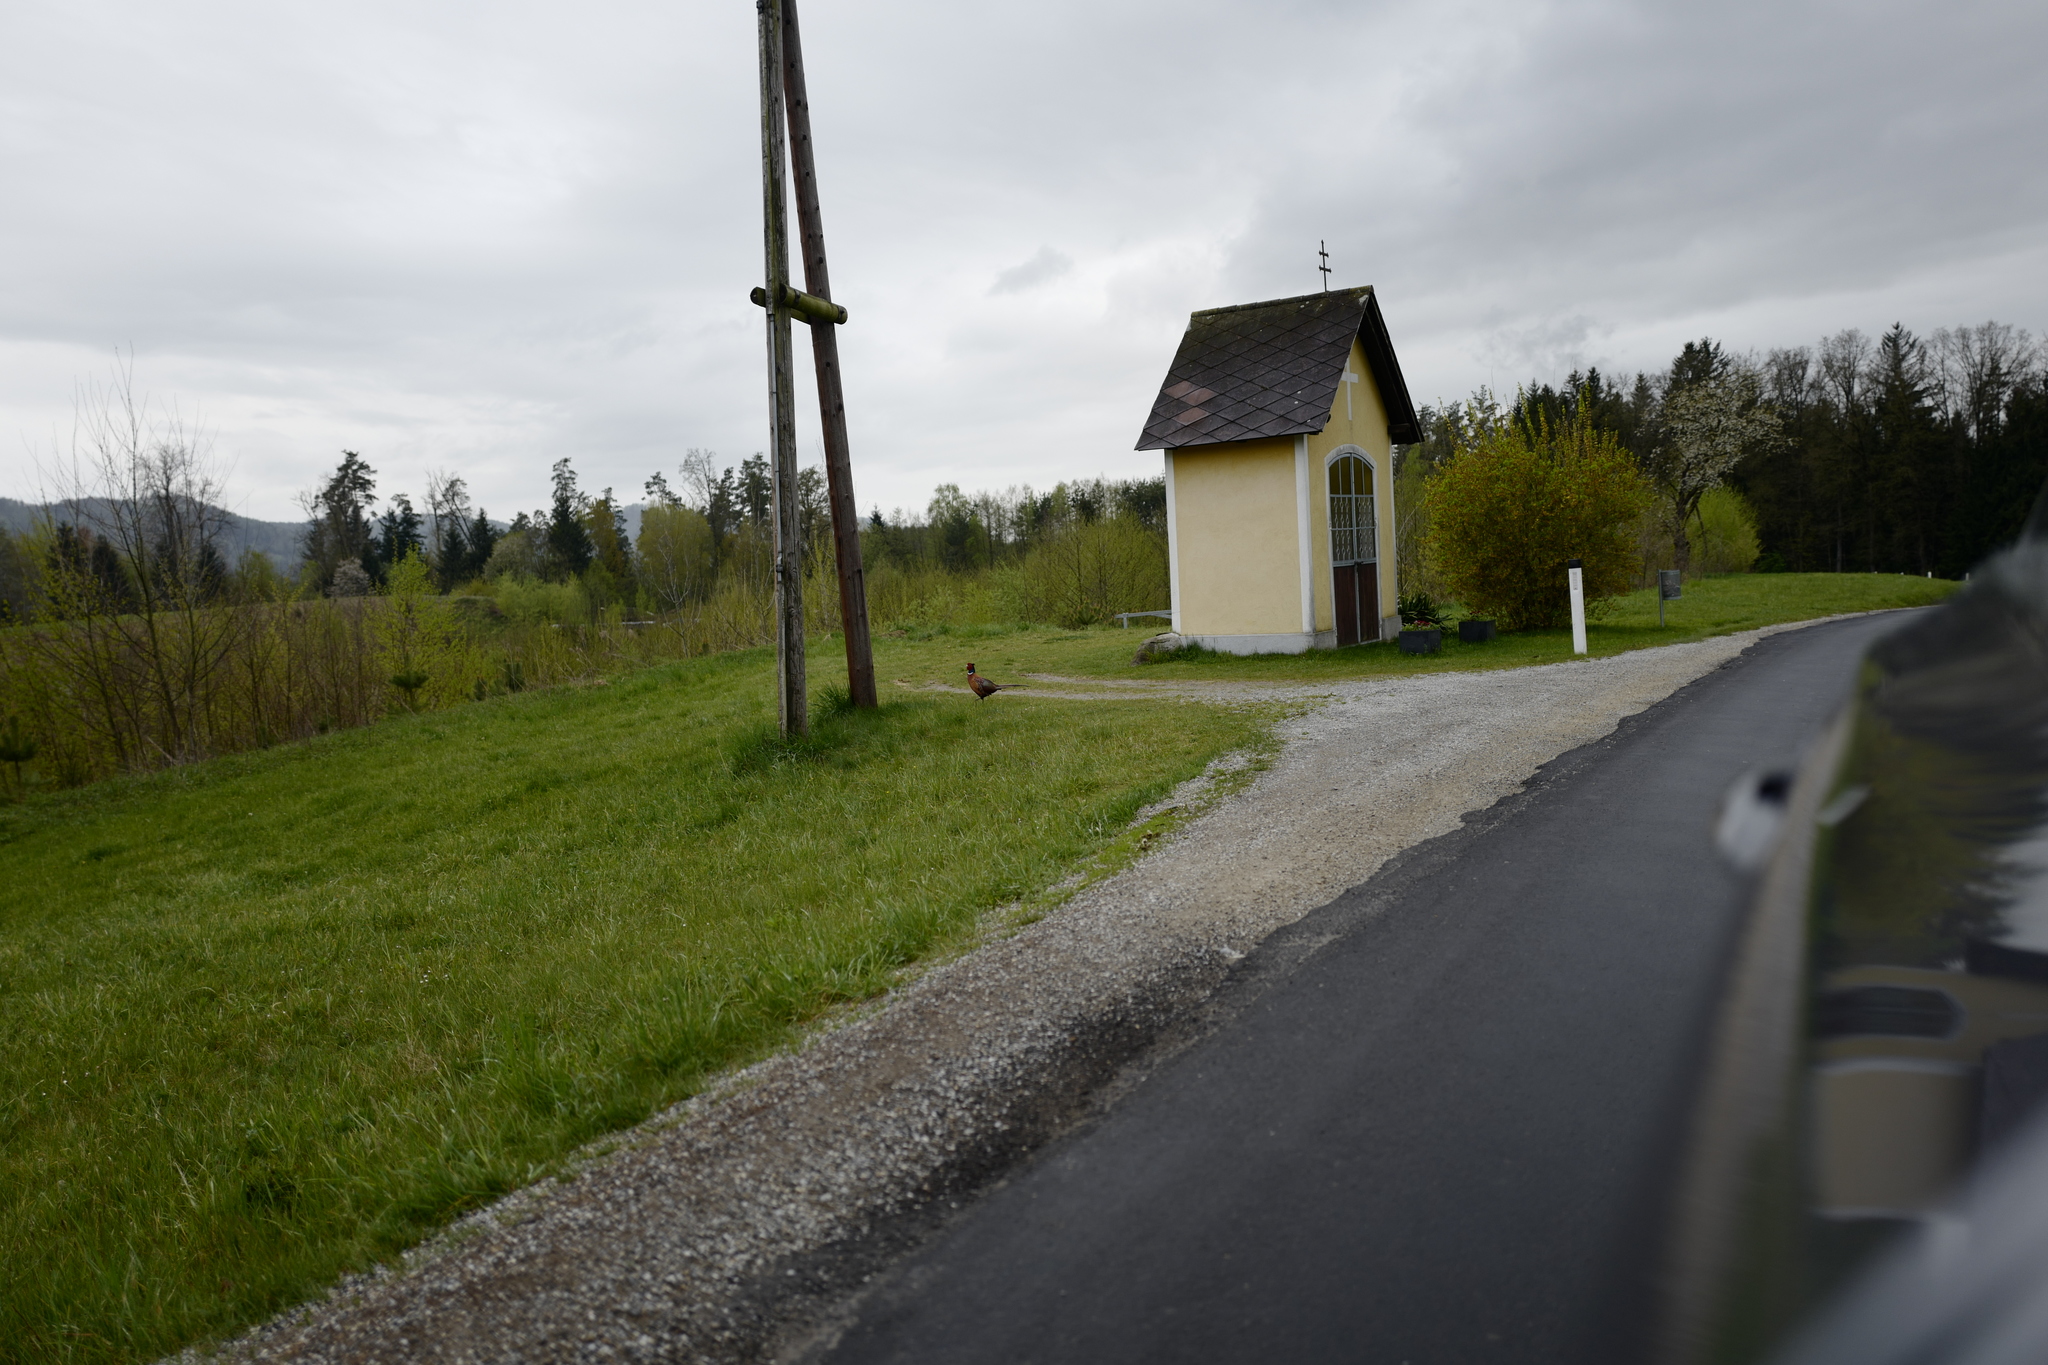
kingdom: Animalia
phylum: Chordata
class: Aves
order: Galliformes
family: Phasianidae
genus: Phasianus
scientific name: Phasianus colchicus
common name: Common pheasant
